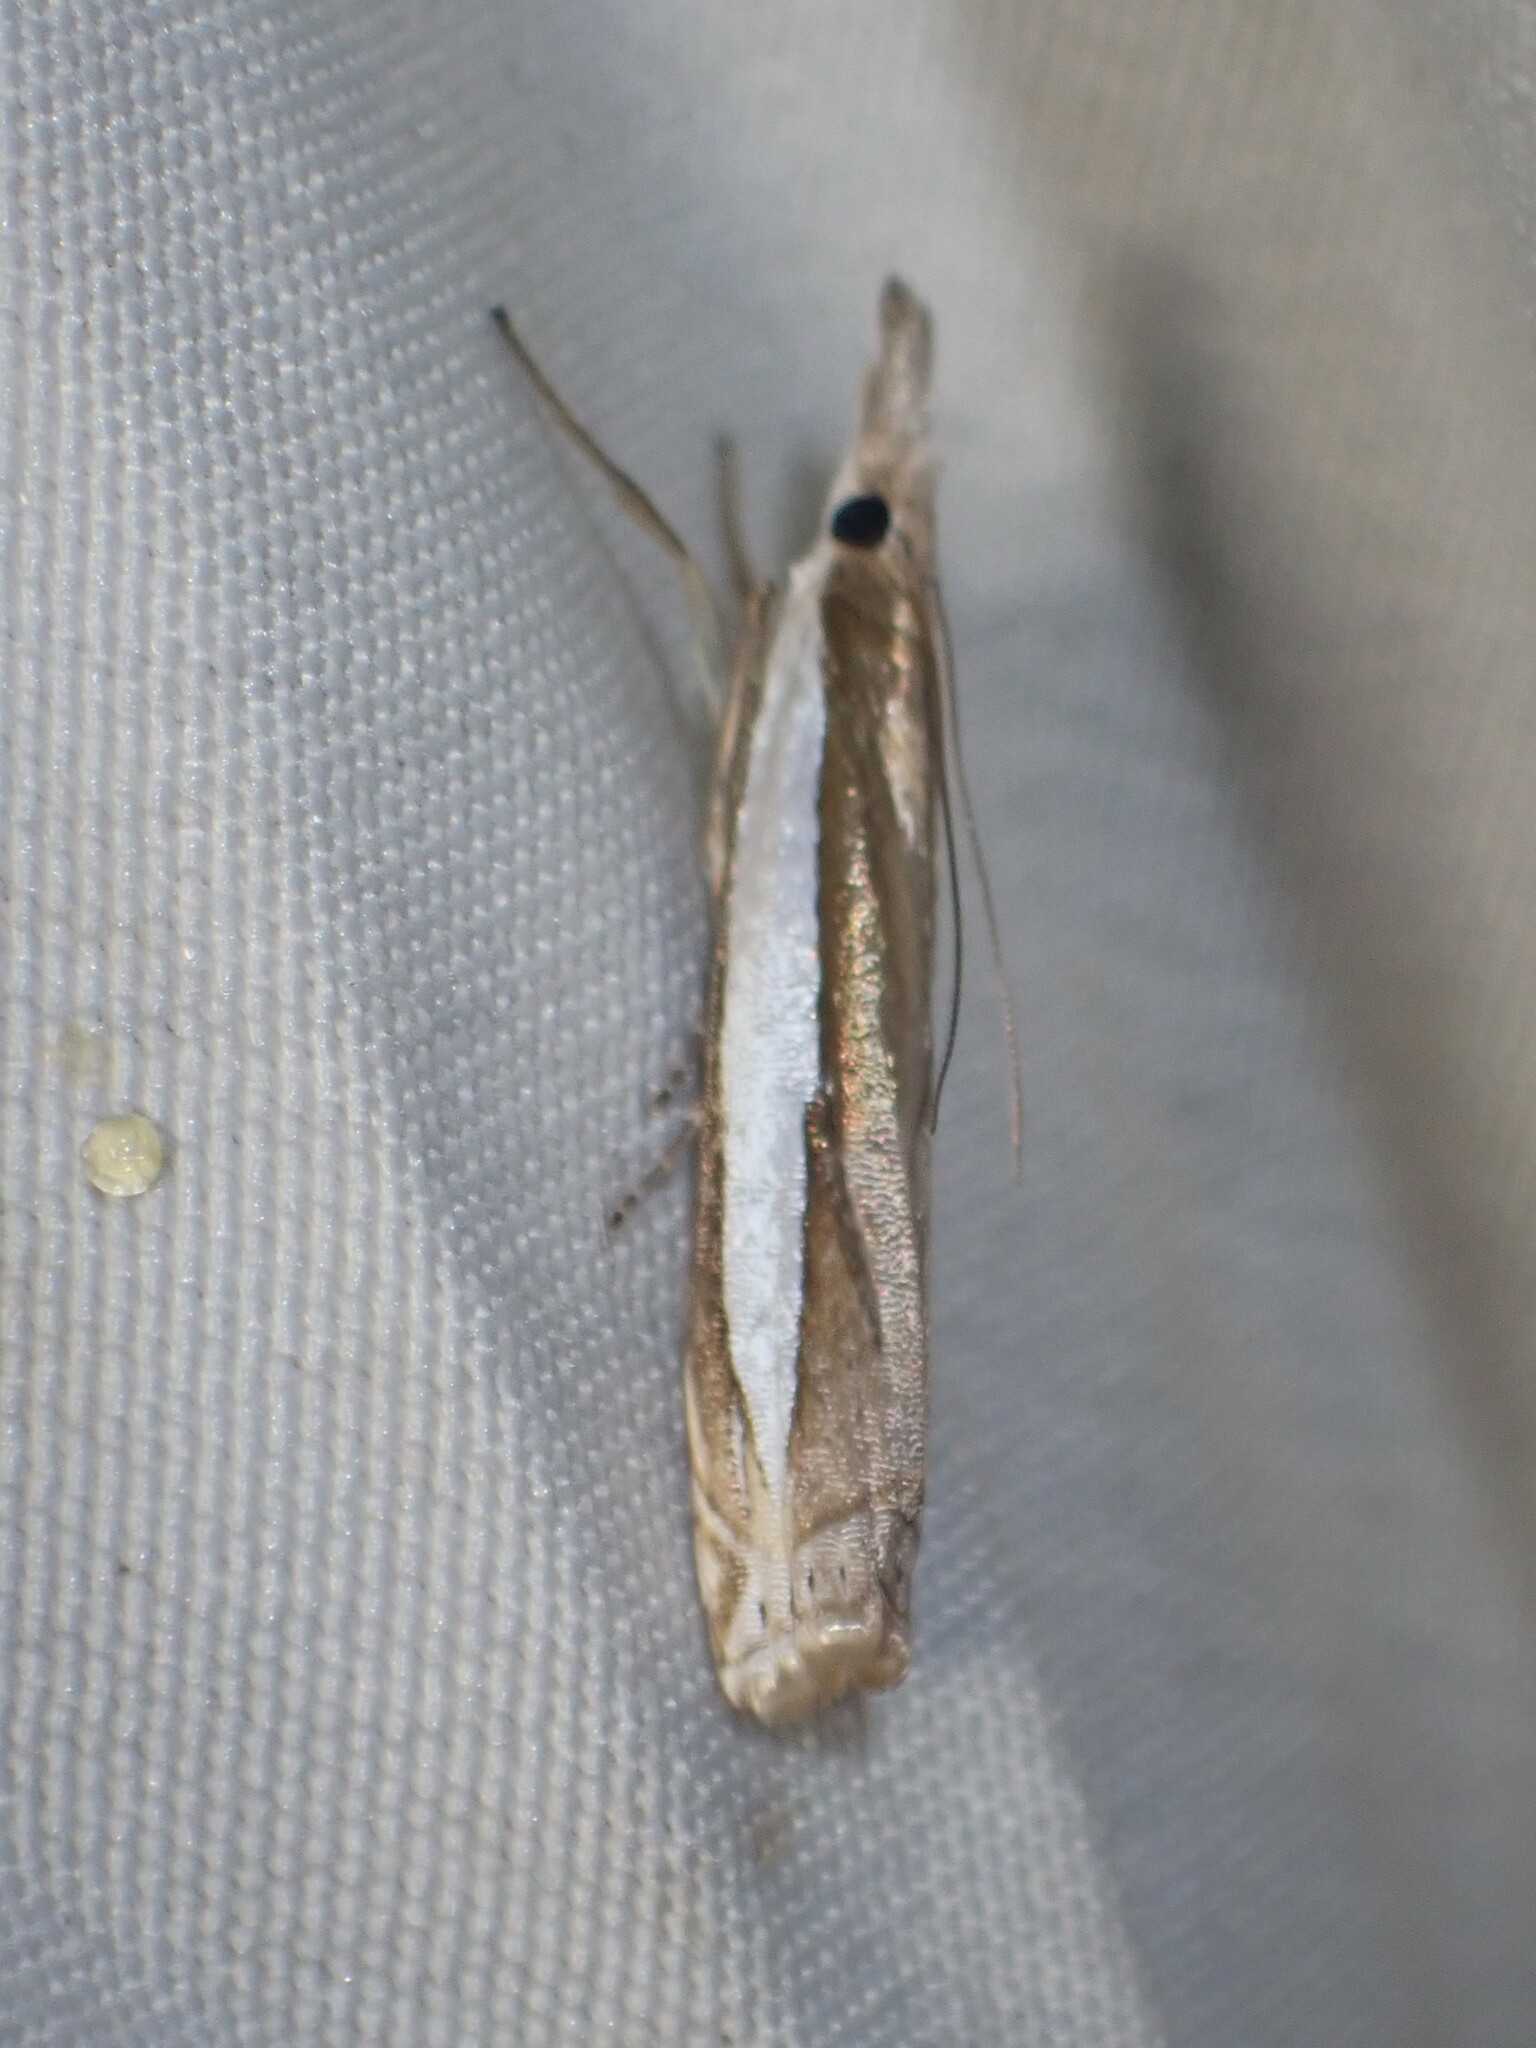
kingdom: Animalia
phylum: Arthropoda
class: Insecta
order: Lepidoptera
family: Crambidae
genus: Crambus
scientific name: Crambus leachellus
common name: Leach's grass-veneer
